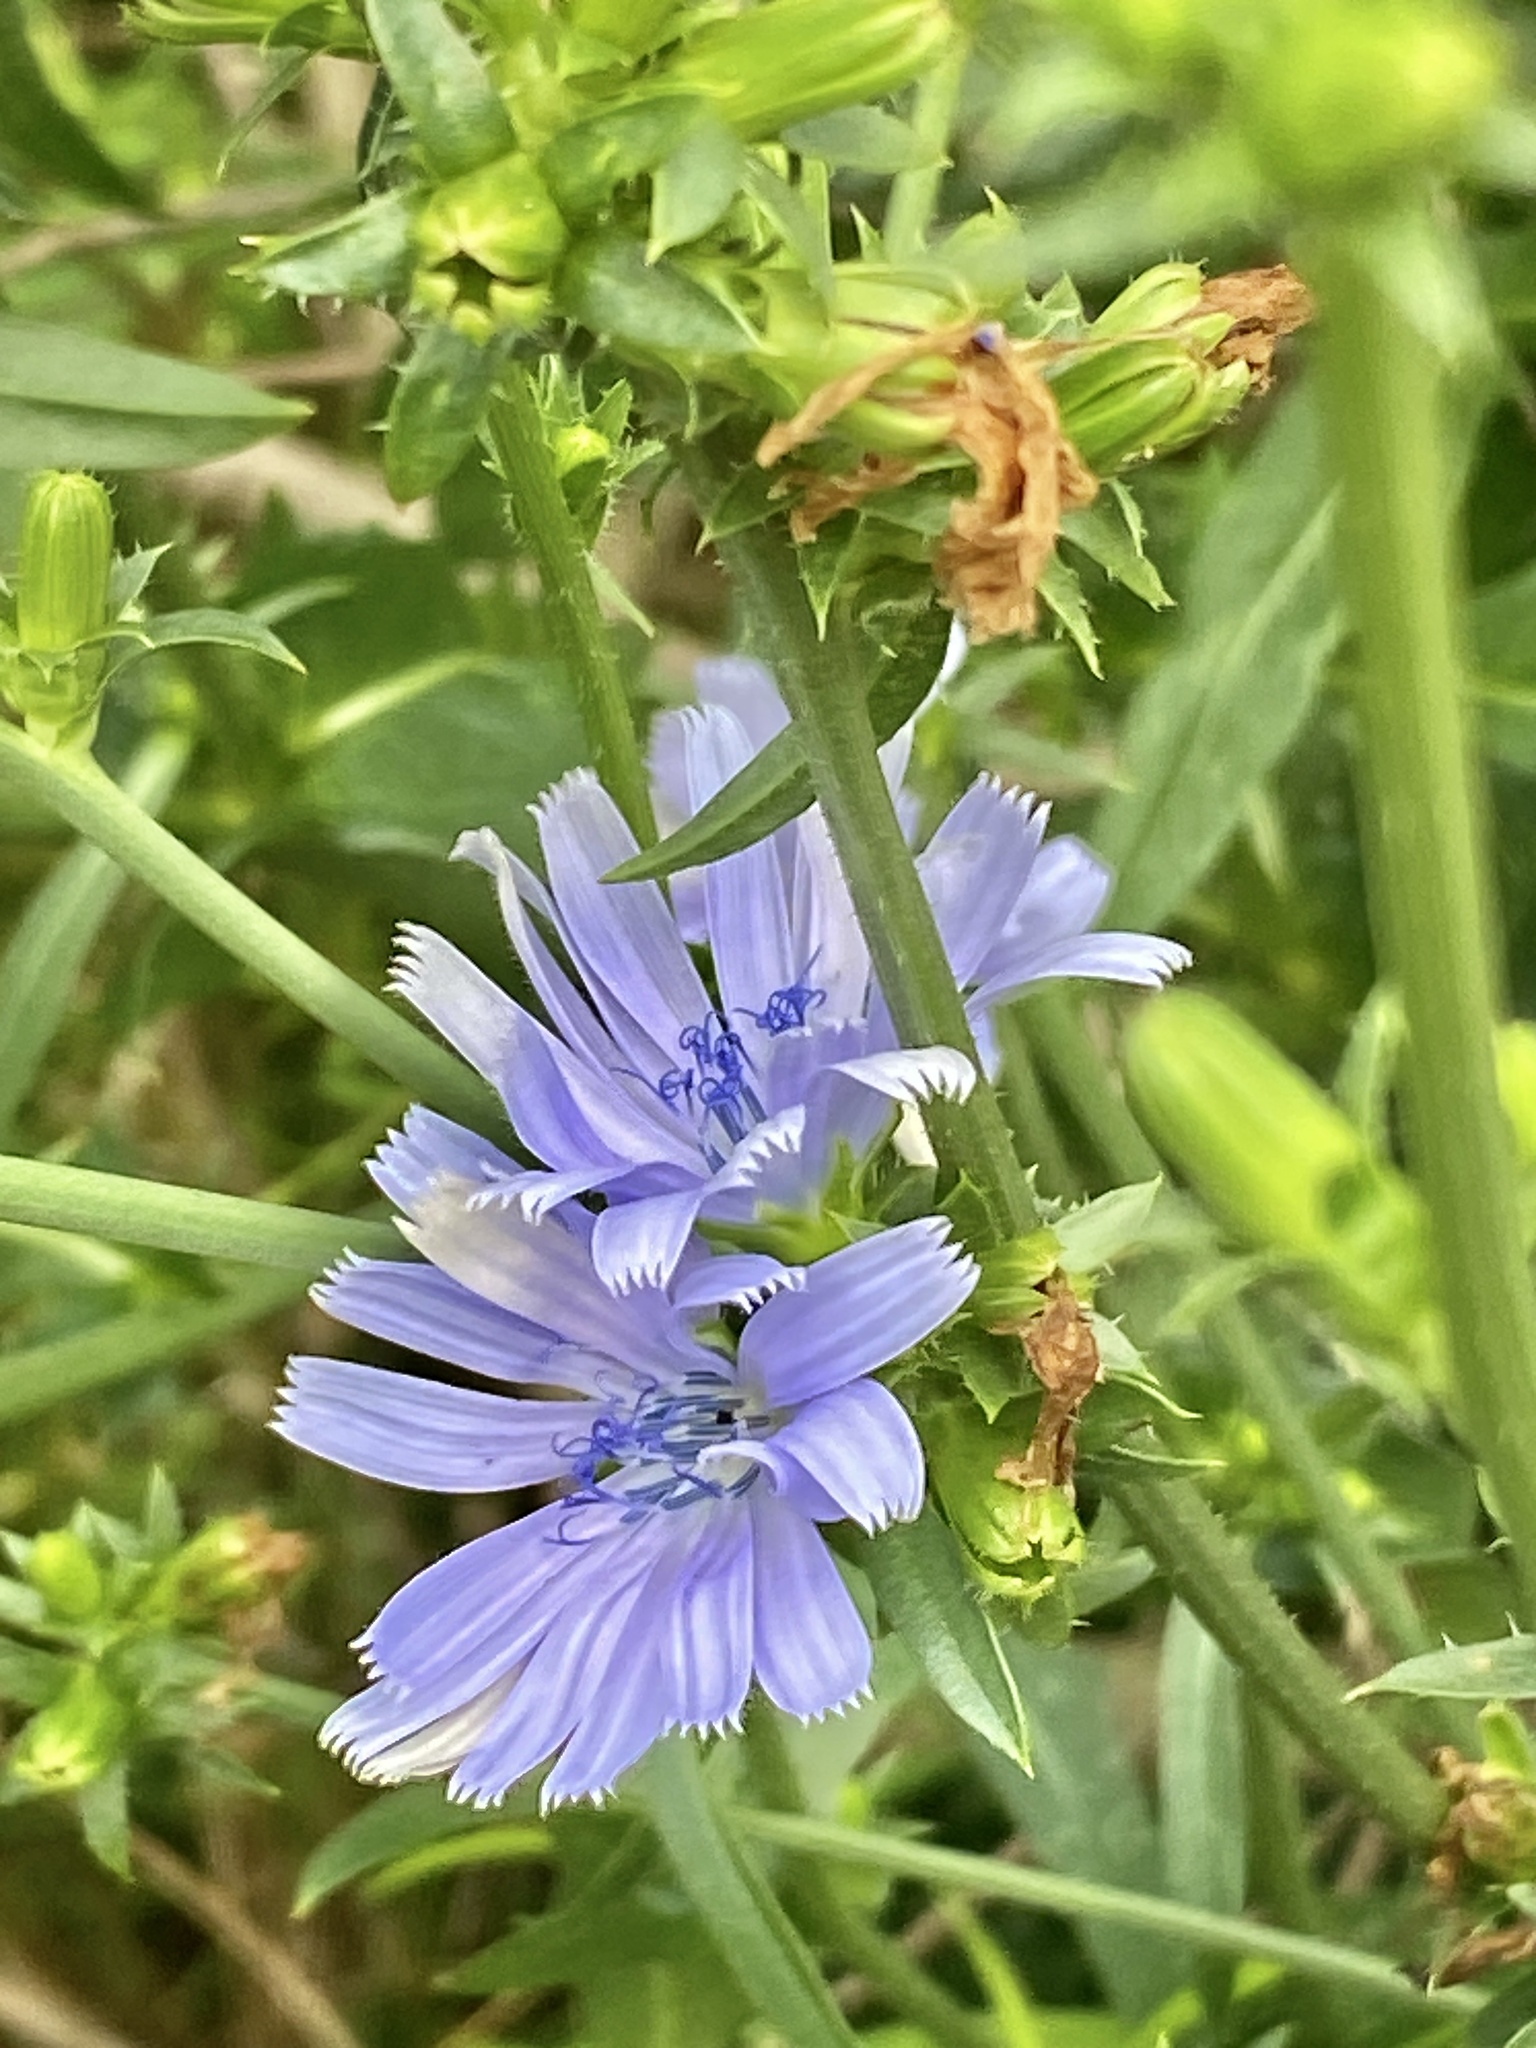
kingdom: Plantae
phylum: Tracheophyta
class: Magnoliopsida
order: Asterales
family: Asteraceae
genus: Cichorium
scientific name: Cichorium intybus
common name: Chicory
